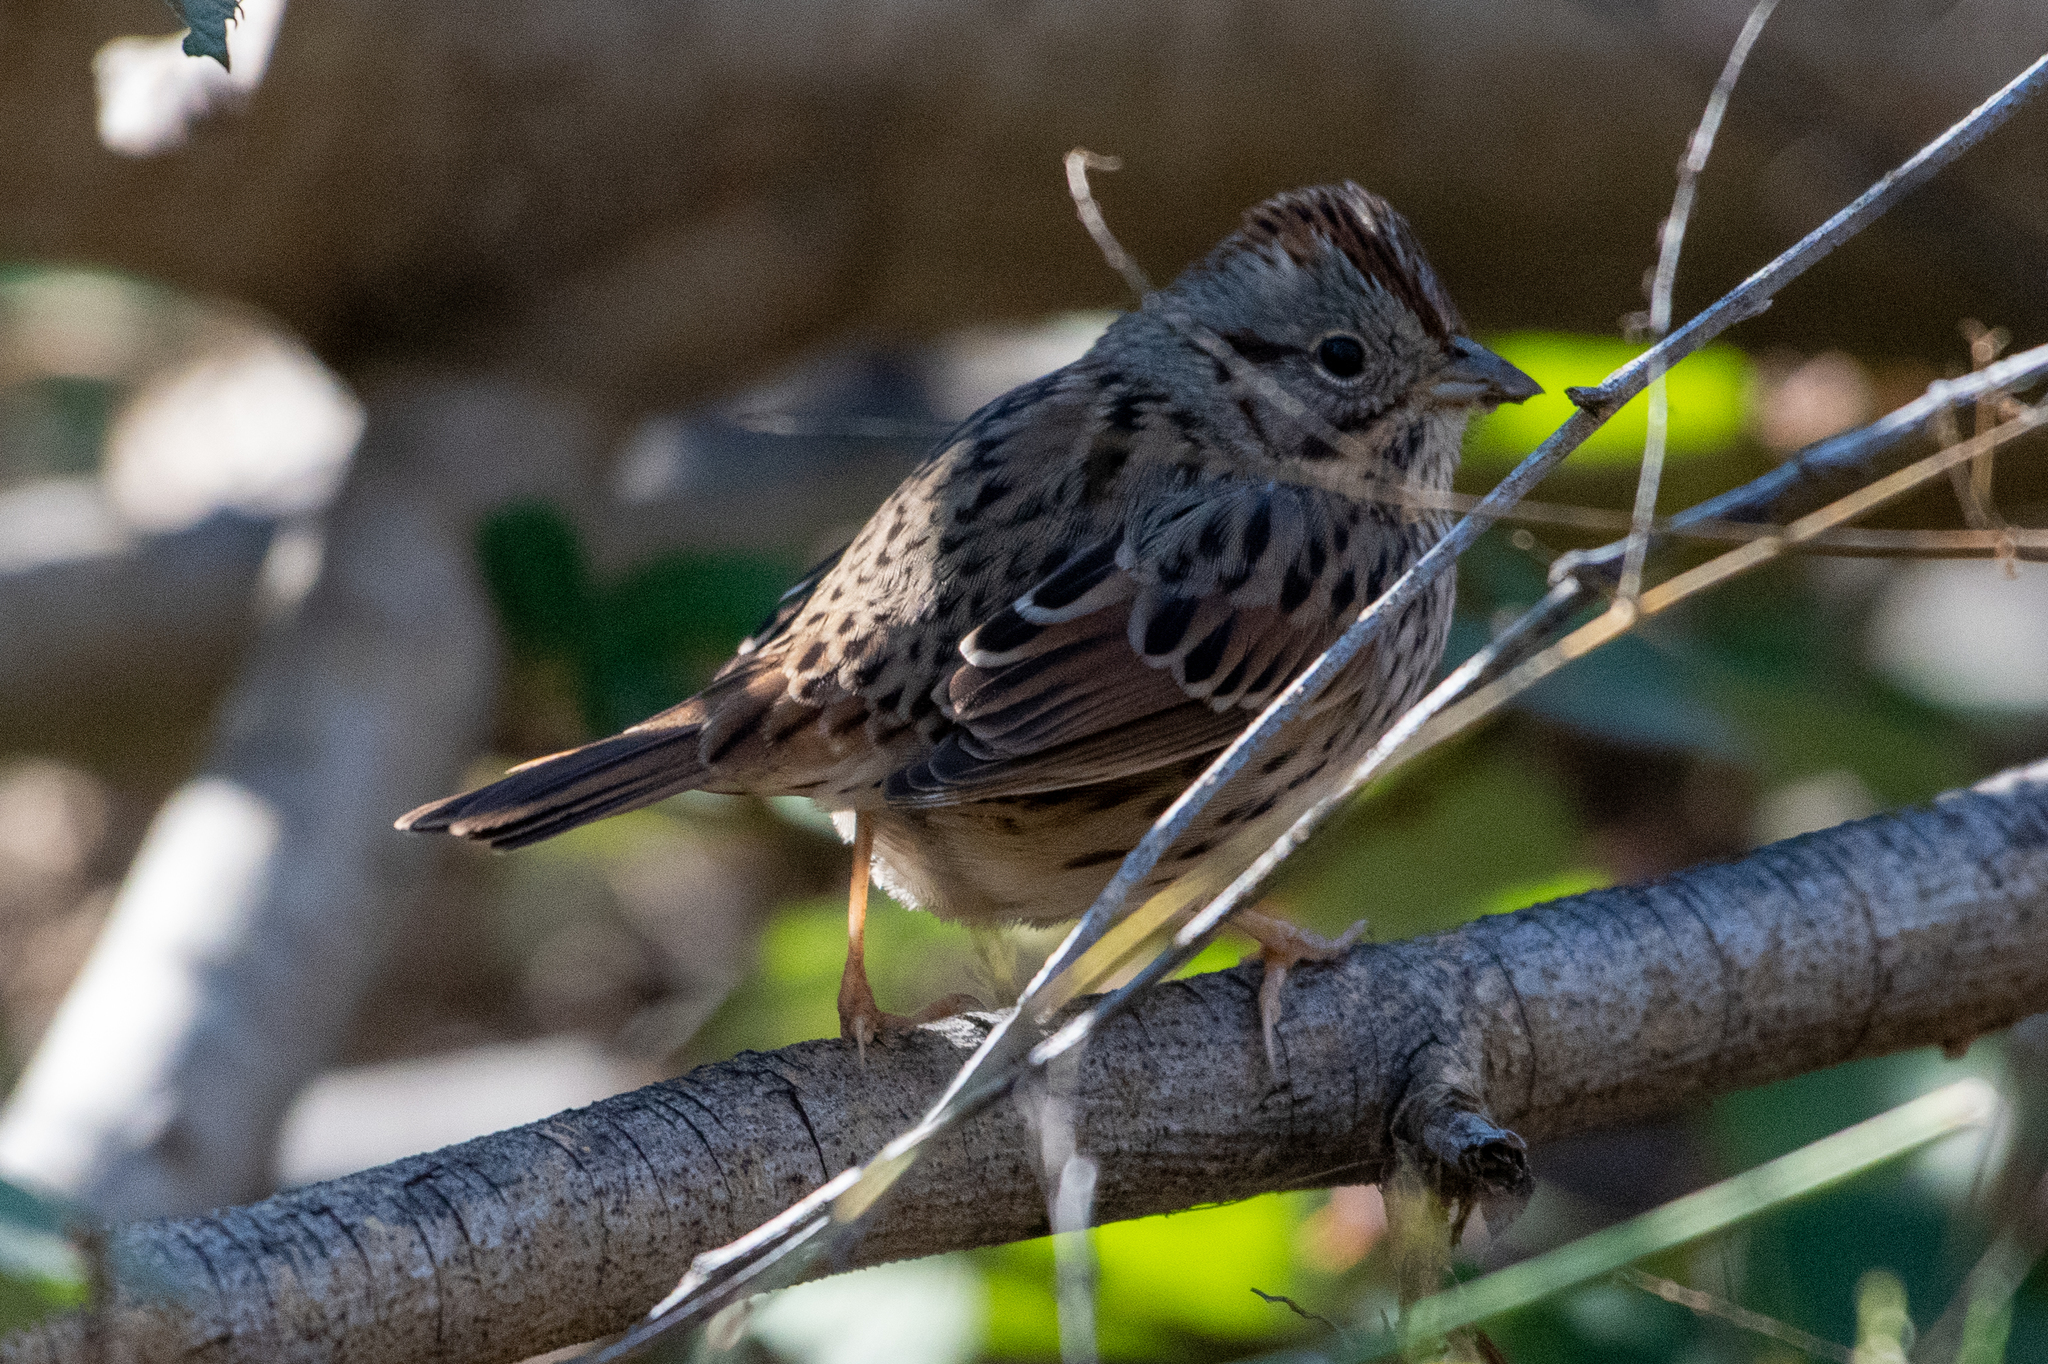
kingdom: Animalia
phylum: Chordata
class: Aves
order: Passeriformes
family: Passerellidae
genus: Melospiza
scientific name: Melospiza lincolnii
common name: Lincoln's sparrow
